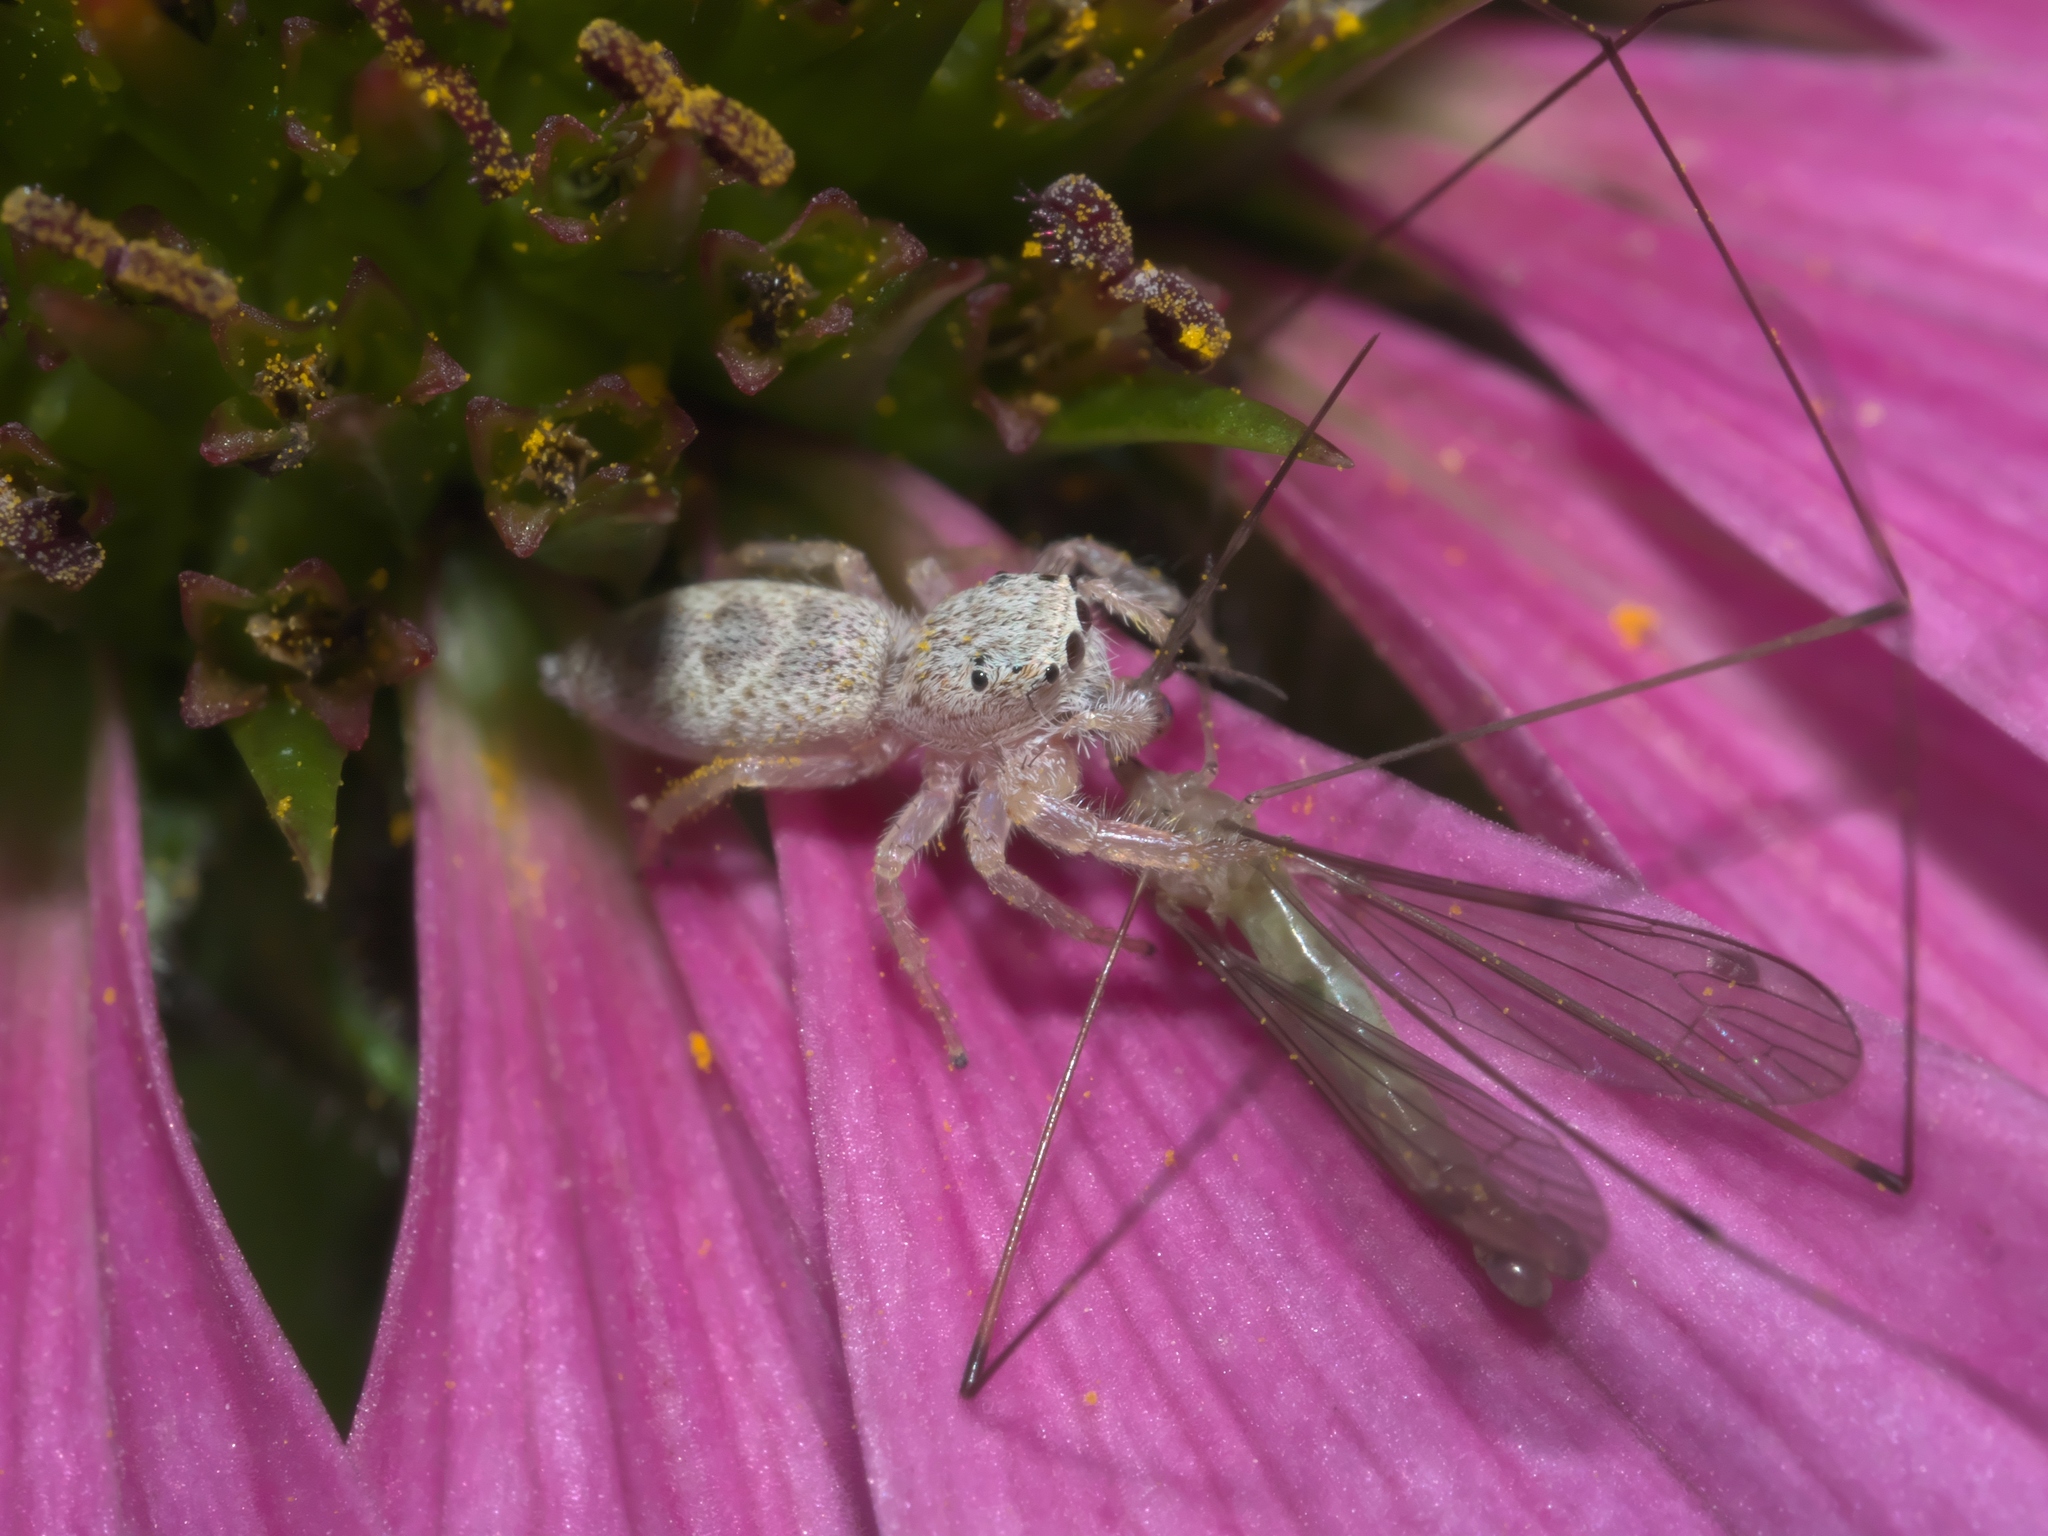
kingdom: Animalia
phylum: Arthropoda
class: Arachnida
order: Araneae
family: Salticidae
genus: Hentzia
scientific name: Hentzia mitrata
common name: White-jawed jumping spider
